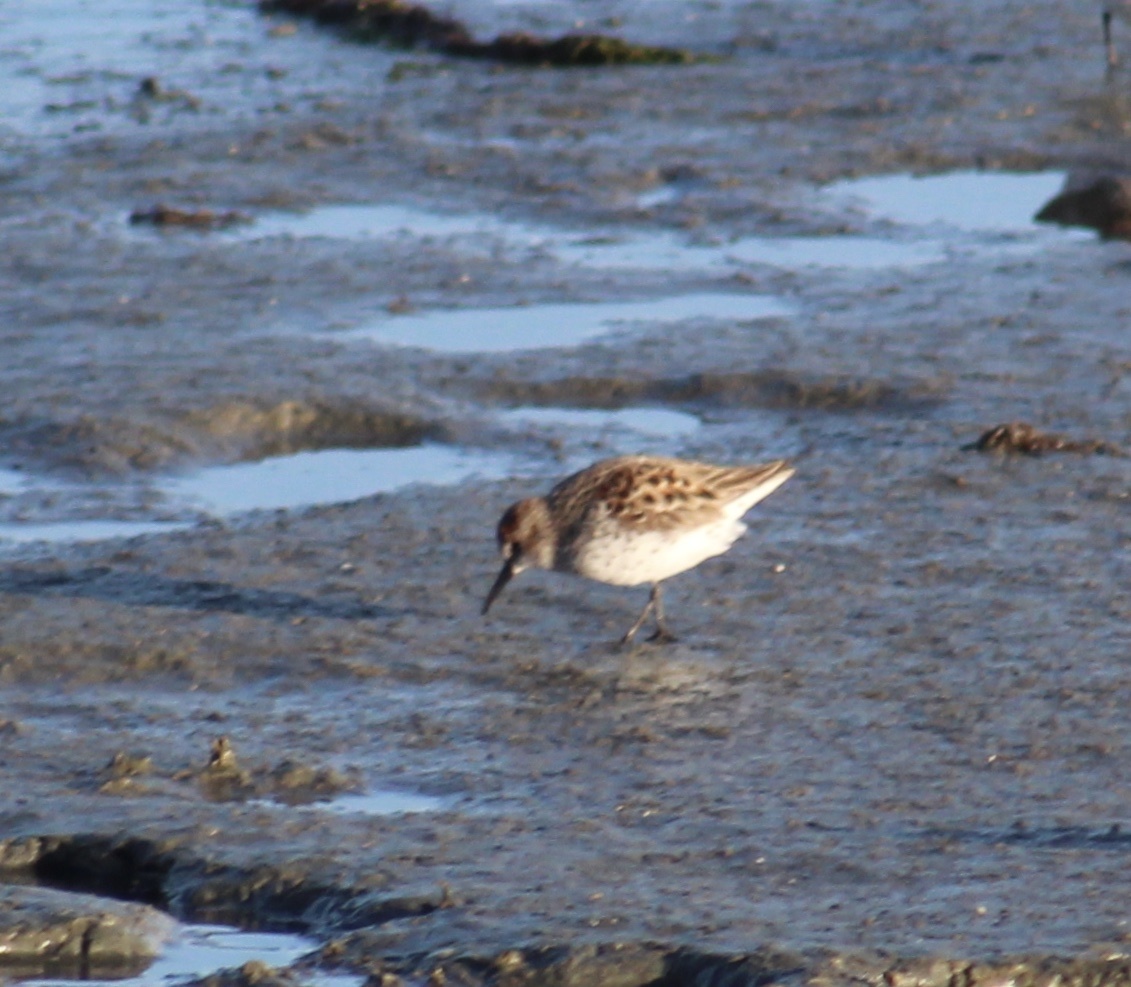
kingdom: Animalia
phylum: Chordata
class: Aves
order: Charadriiformes
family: Scolopacidae
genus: Calidris
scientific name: Calidris mauri
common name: Western sandpiper
